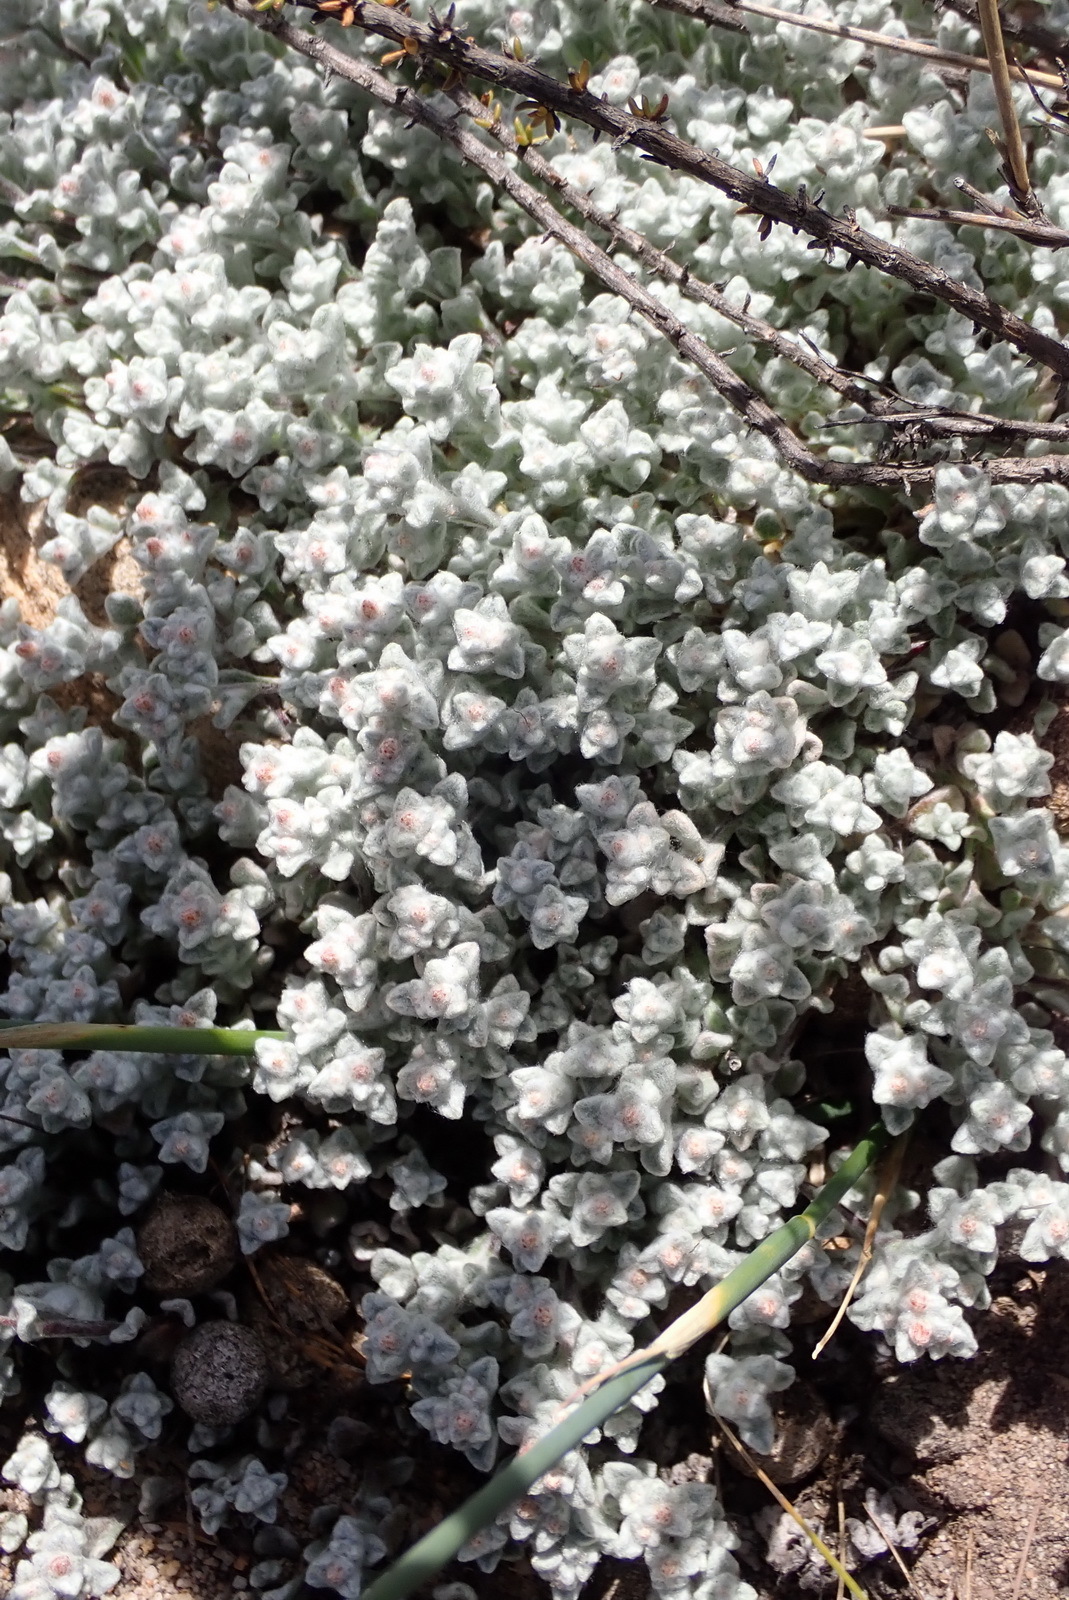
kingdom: Plantae
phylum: Tracheophyta
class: Magnoliopsida
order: Asterales
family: Asteraceae
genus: Helichrysum
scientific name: Helichrysum zwartbergense
